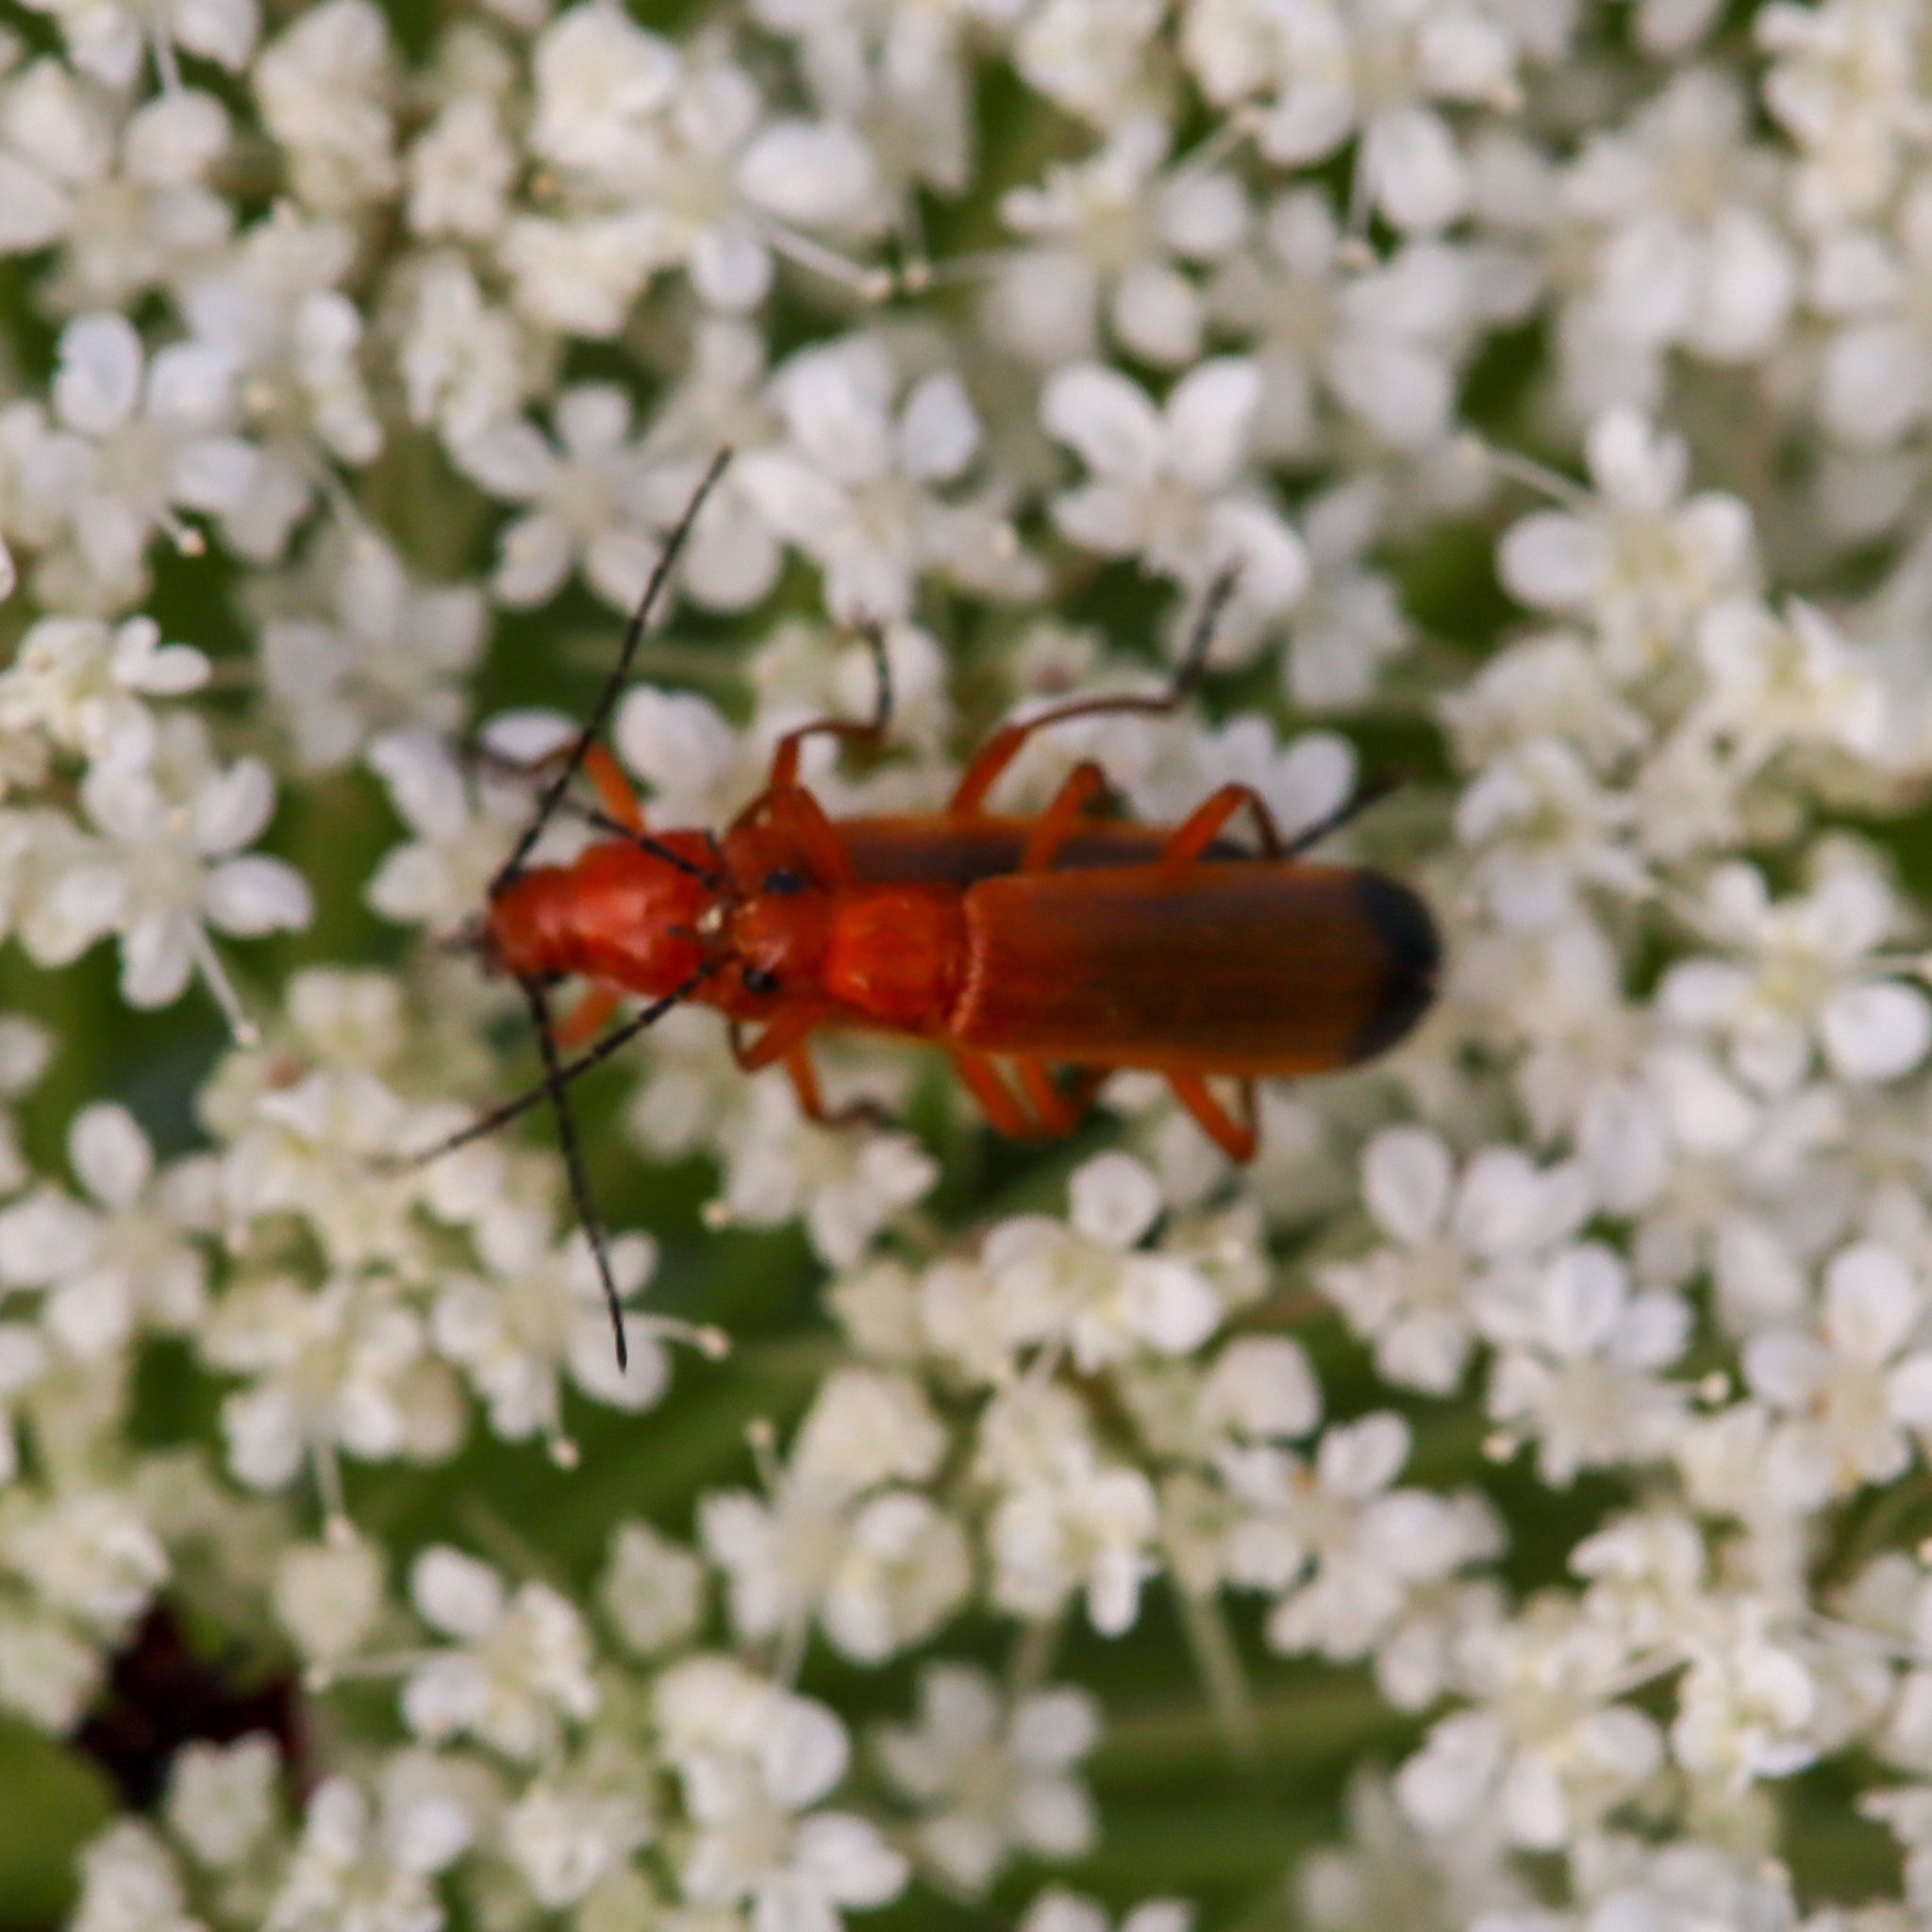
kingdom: Animalia
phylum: Arthropoda
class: Insecta
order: Coleoptera
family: Cantharidae
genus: Rhagonycha
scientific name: Rhagonycha fulva
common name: Common red soldier beetle
